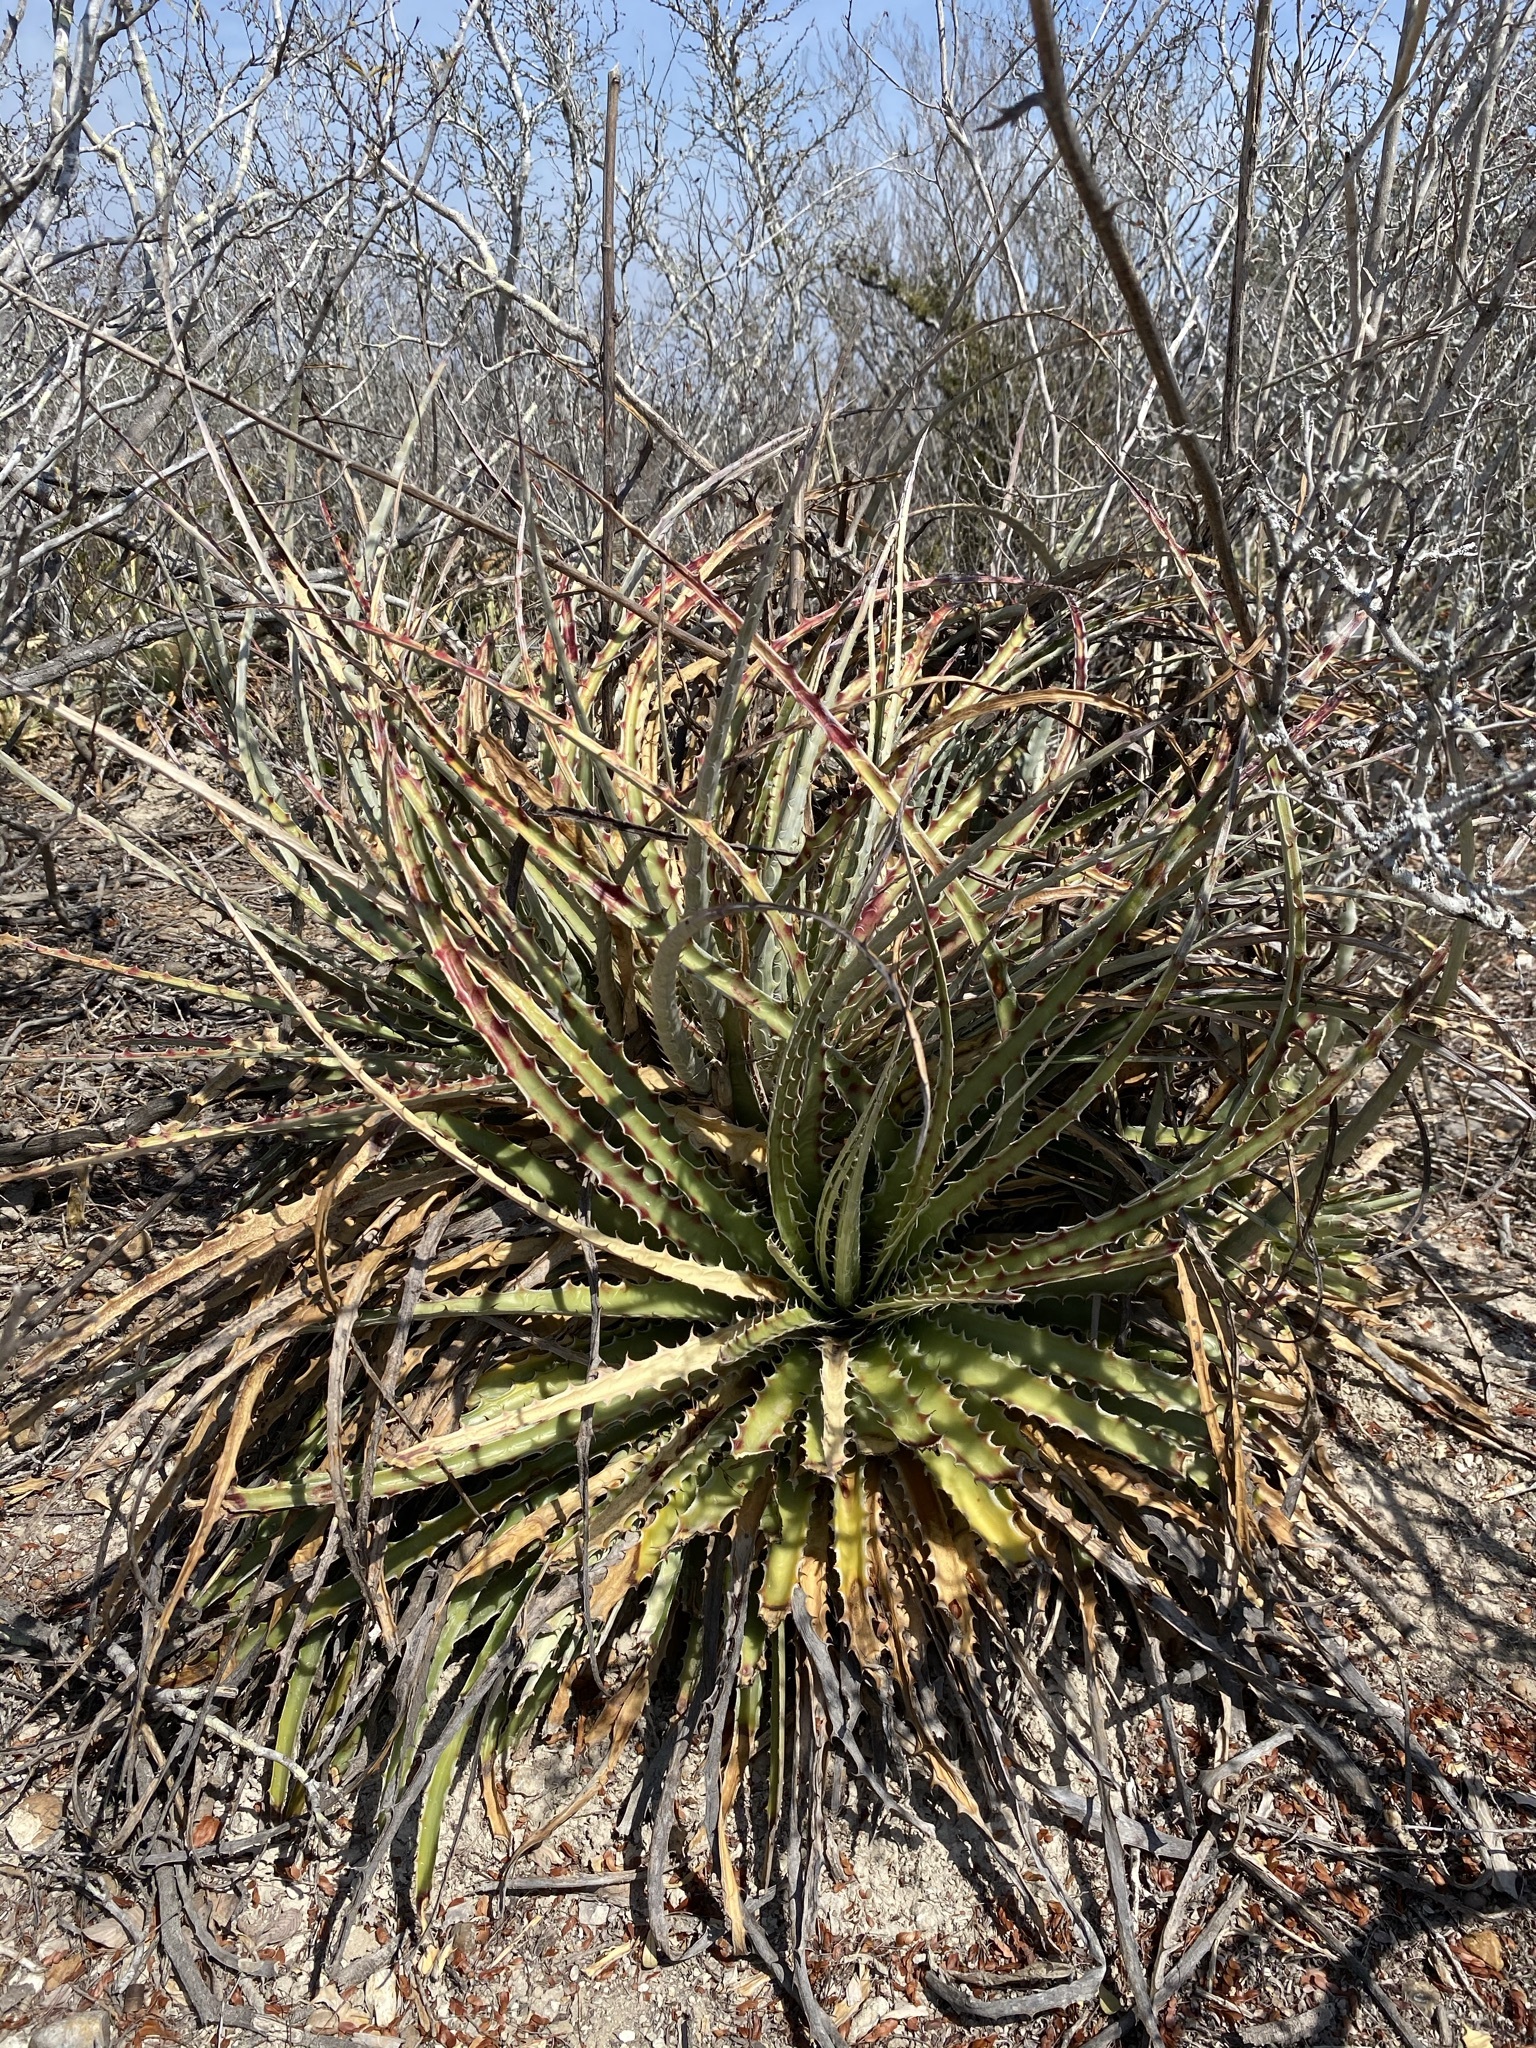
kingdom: Plantae
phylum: Tracheophyta
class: Liliopsida
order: Poales
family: Bromeliaceae
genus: Hechtia
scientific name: Hechtia glomerata
